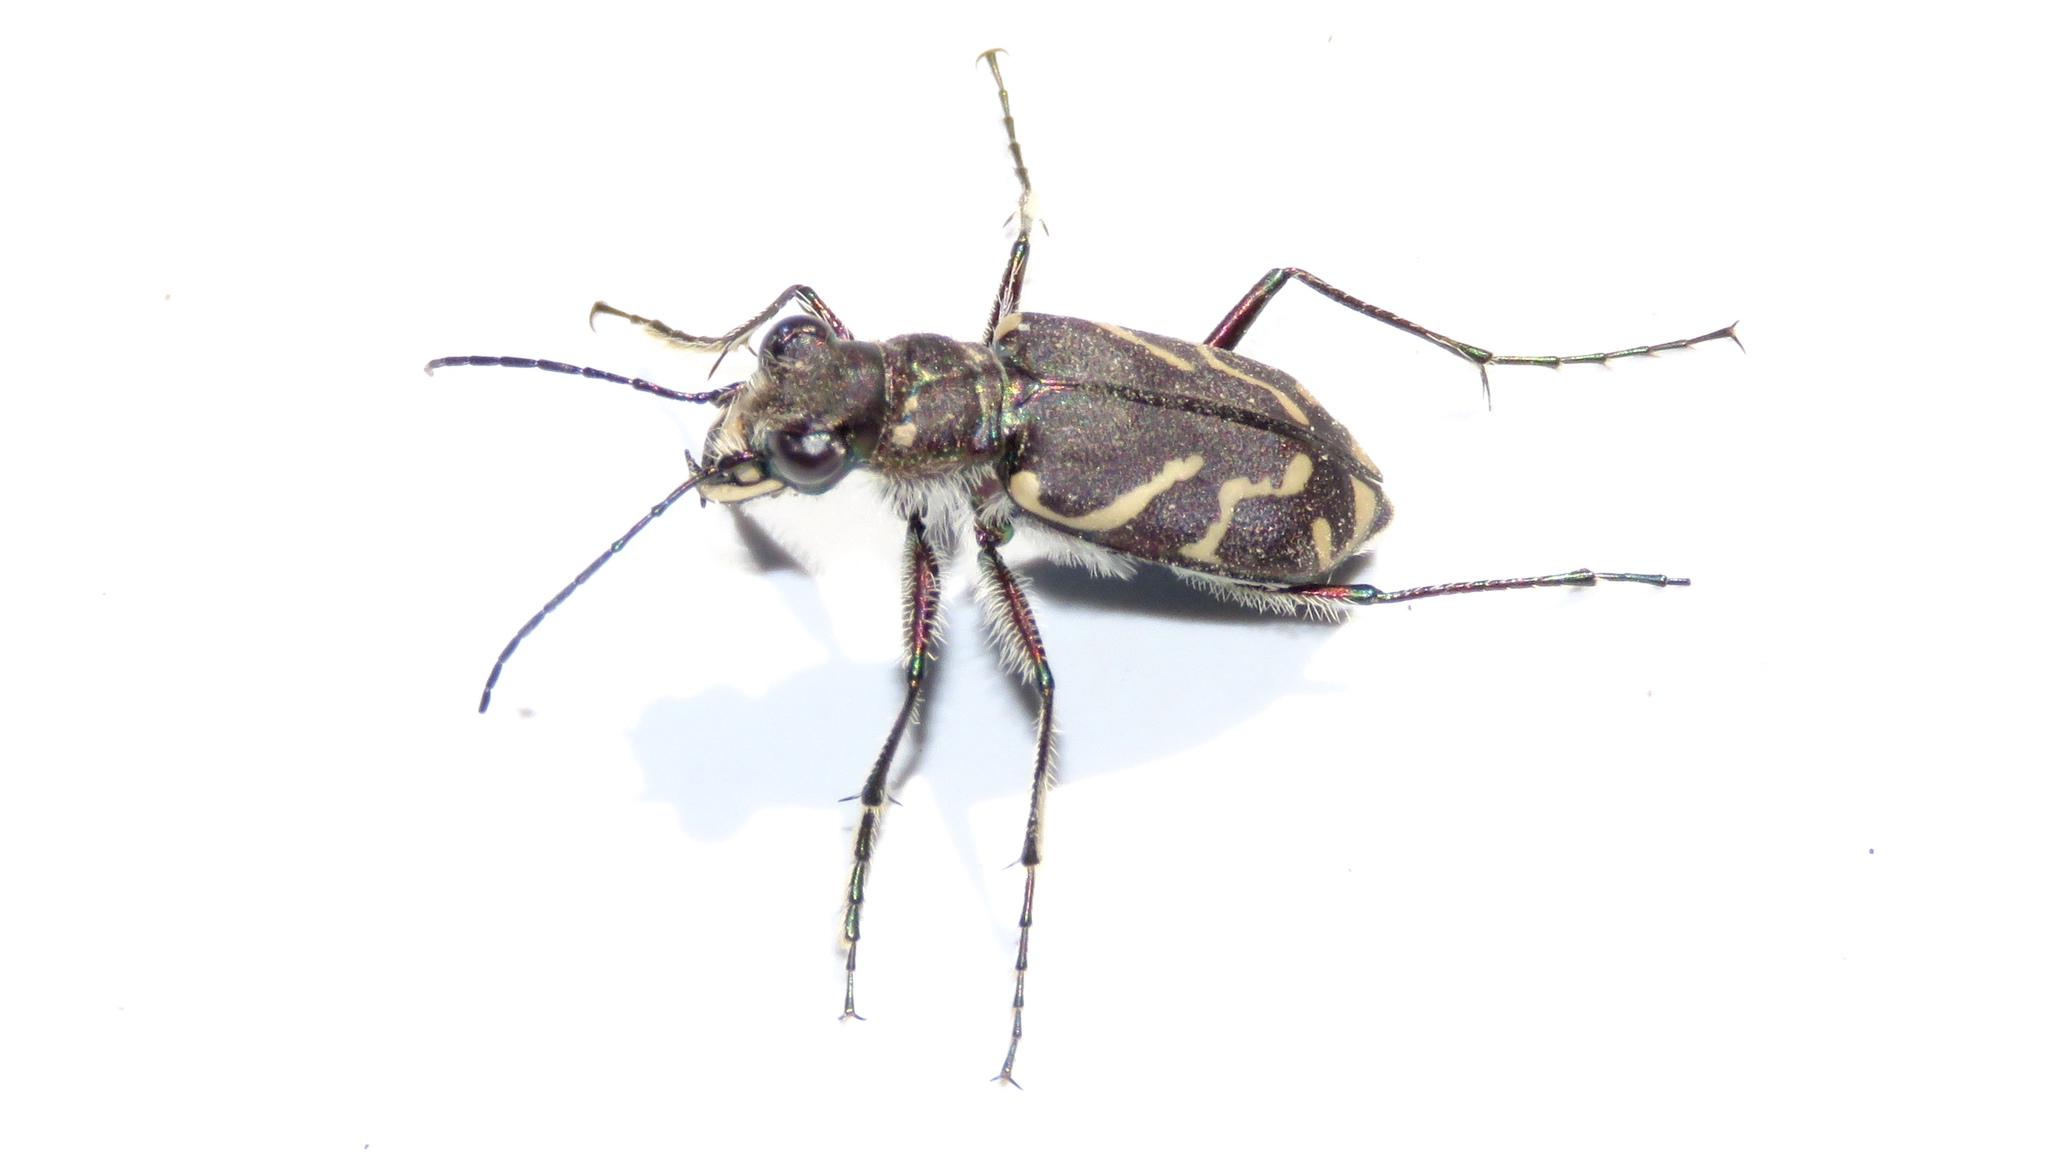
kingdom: Animalia
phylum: Arthropoda
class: Insecta
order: Coleoptera
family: Carabidae
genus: Cicindela
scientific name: Cicindela tranquebarica
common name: Oblique-lined tiger beetle
